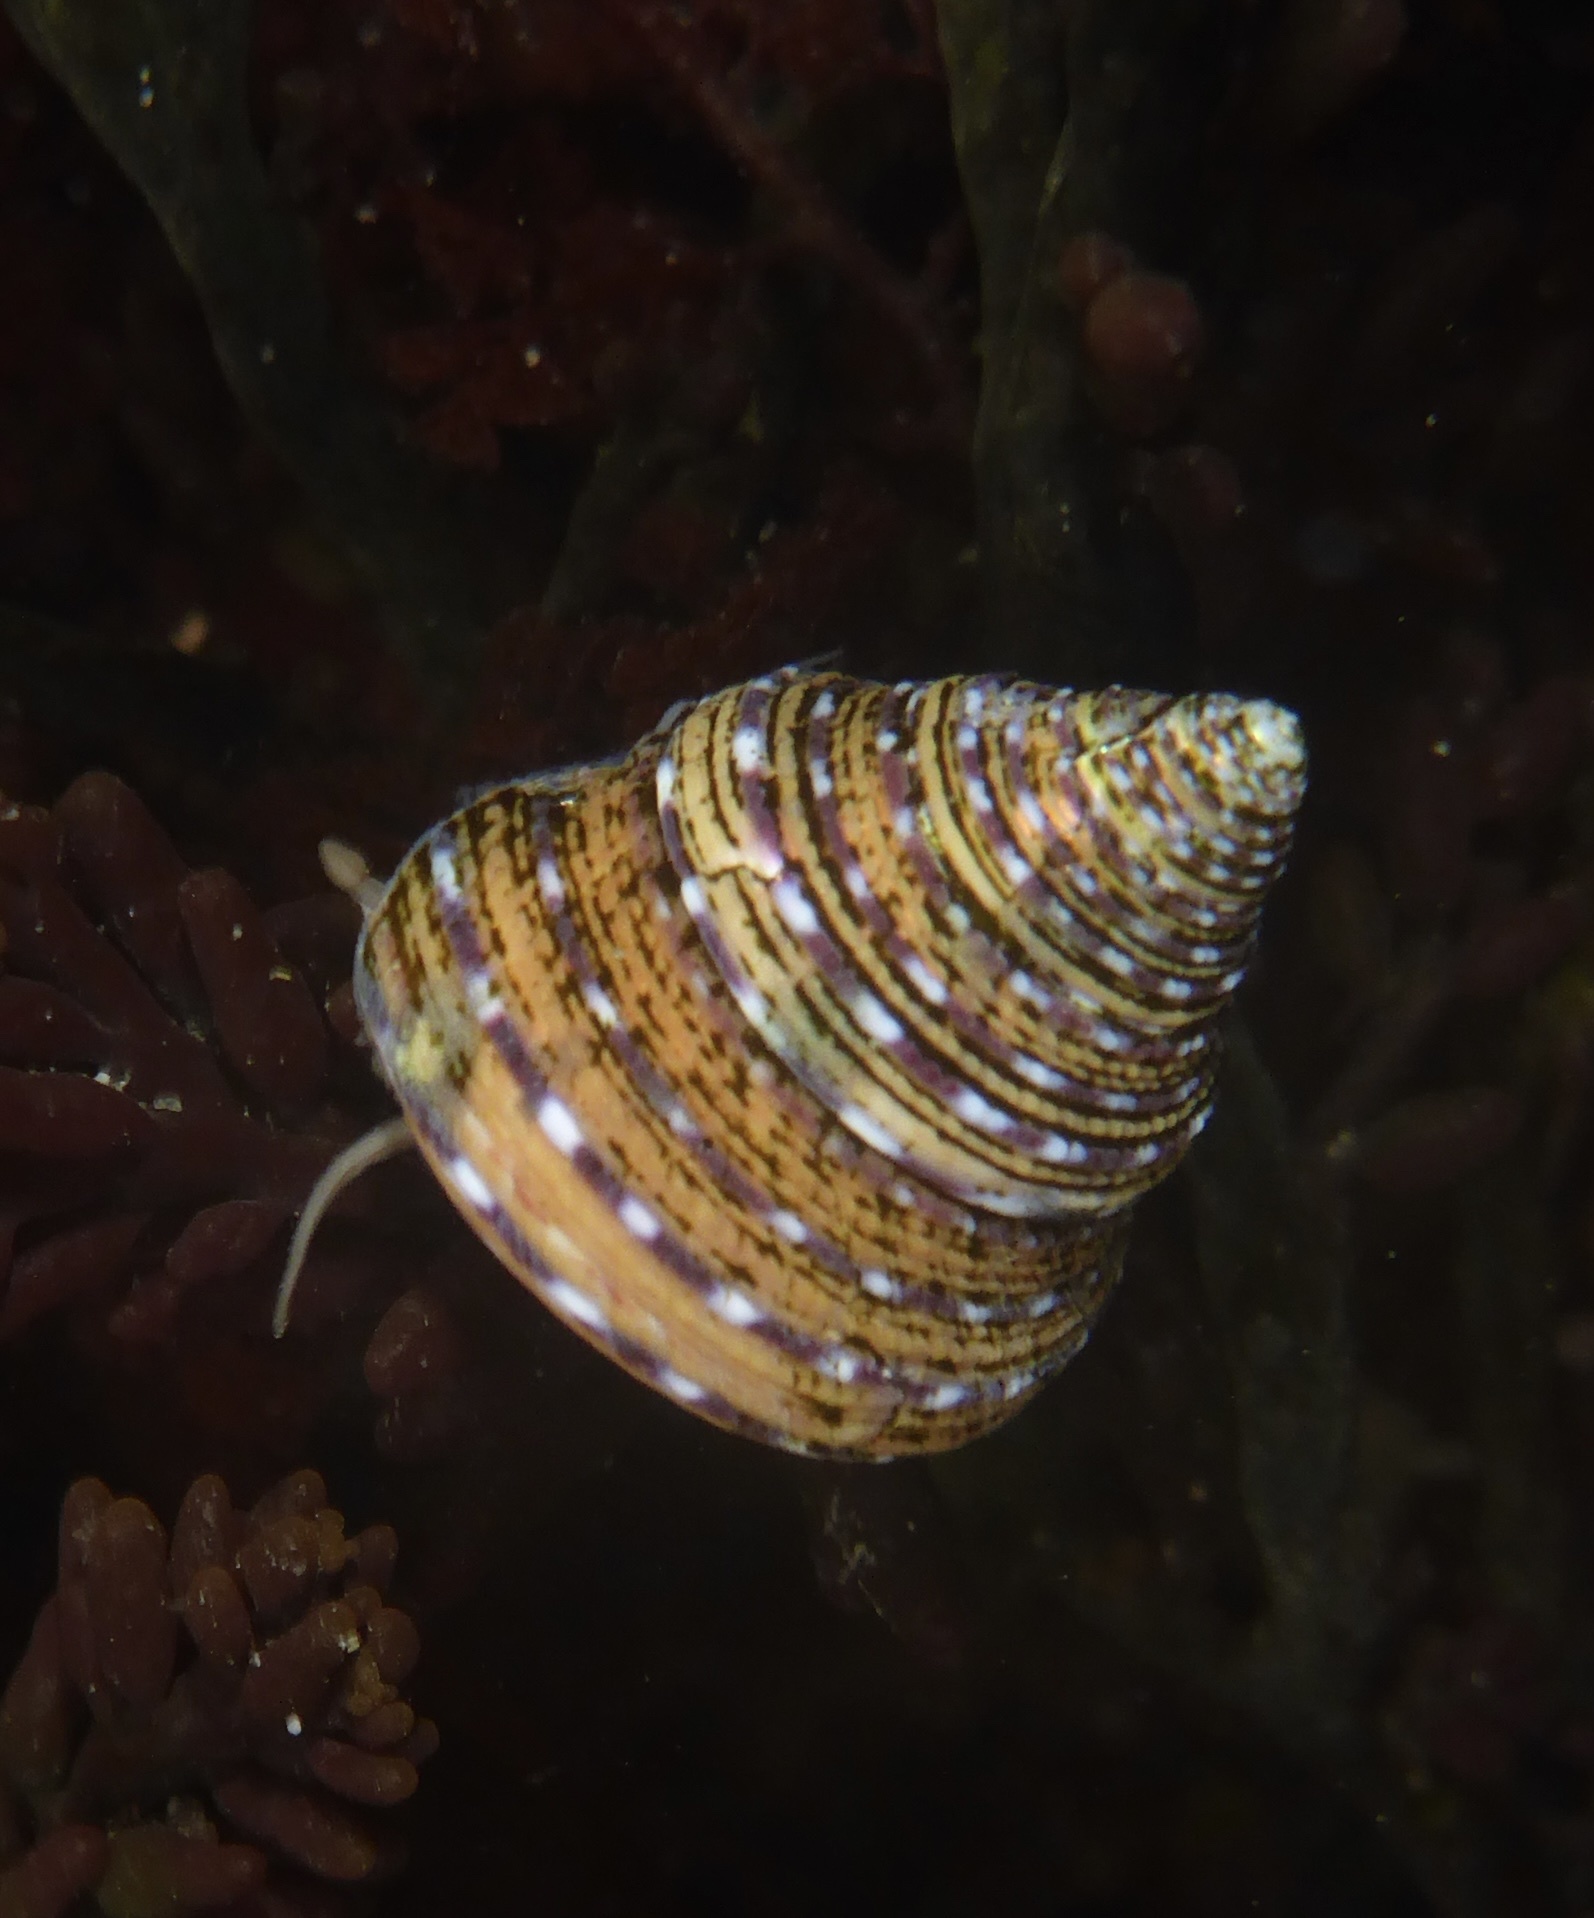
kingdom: Animalia
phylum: Mollusca
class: Gastropoda
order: Trochida
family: Calliostomatidae
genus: Calliostoma
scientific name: Calliostoma tricolor
